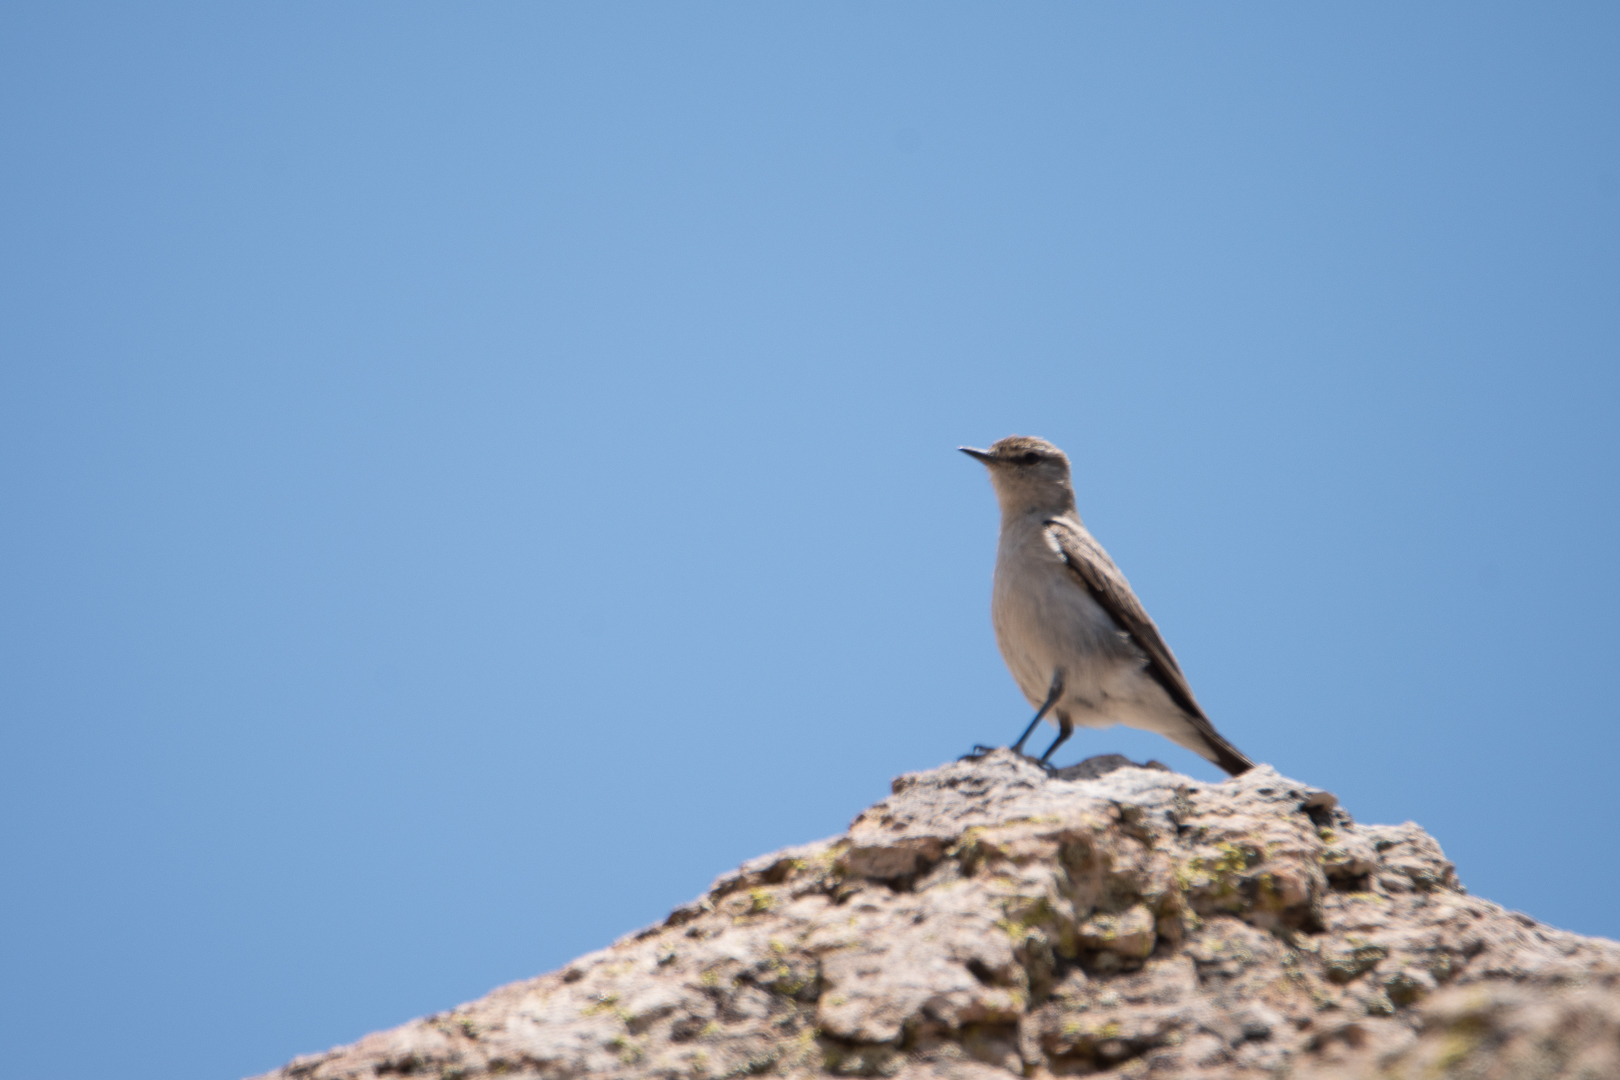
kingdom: Animalia
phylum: Chordata
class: Aves
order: Passeriformes
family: Tyrannidae
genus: Muscisaxicola
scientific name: Muscisaxicola rufivertex
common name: Rufous-naped ground tyrant
